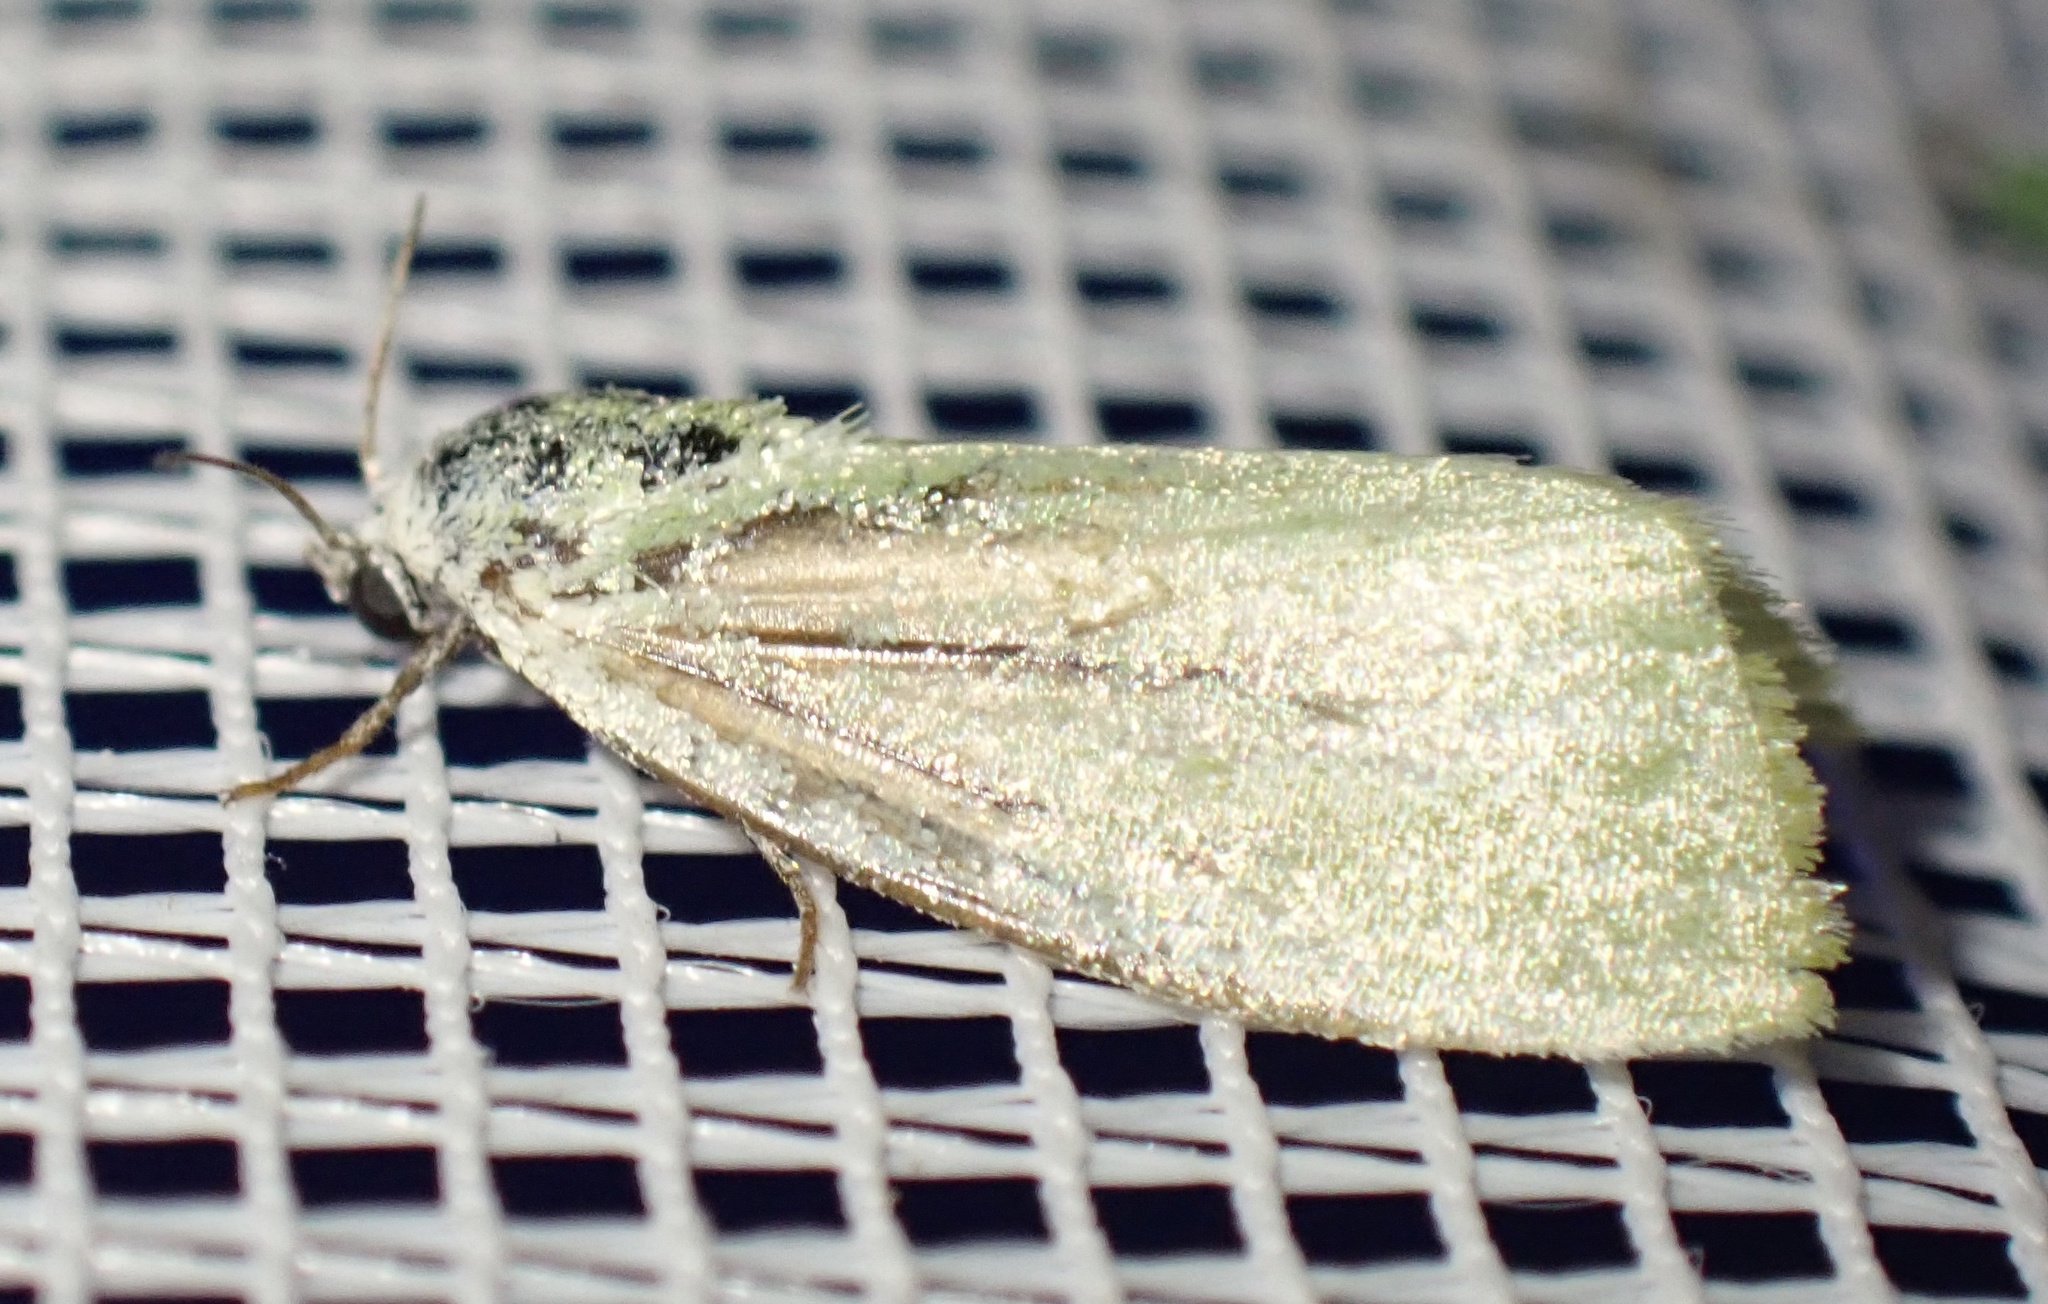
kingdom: Animalia
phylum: Arthropoda
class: Insecta
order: Lepidoptera
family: Nolidae
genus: Earias
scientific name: Earias clorana
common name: Cream-bordered green pea
